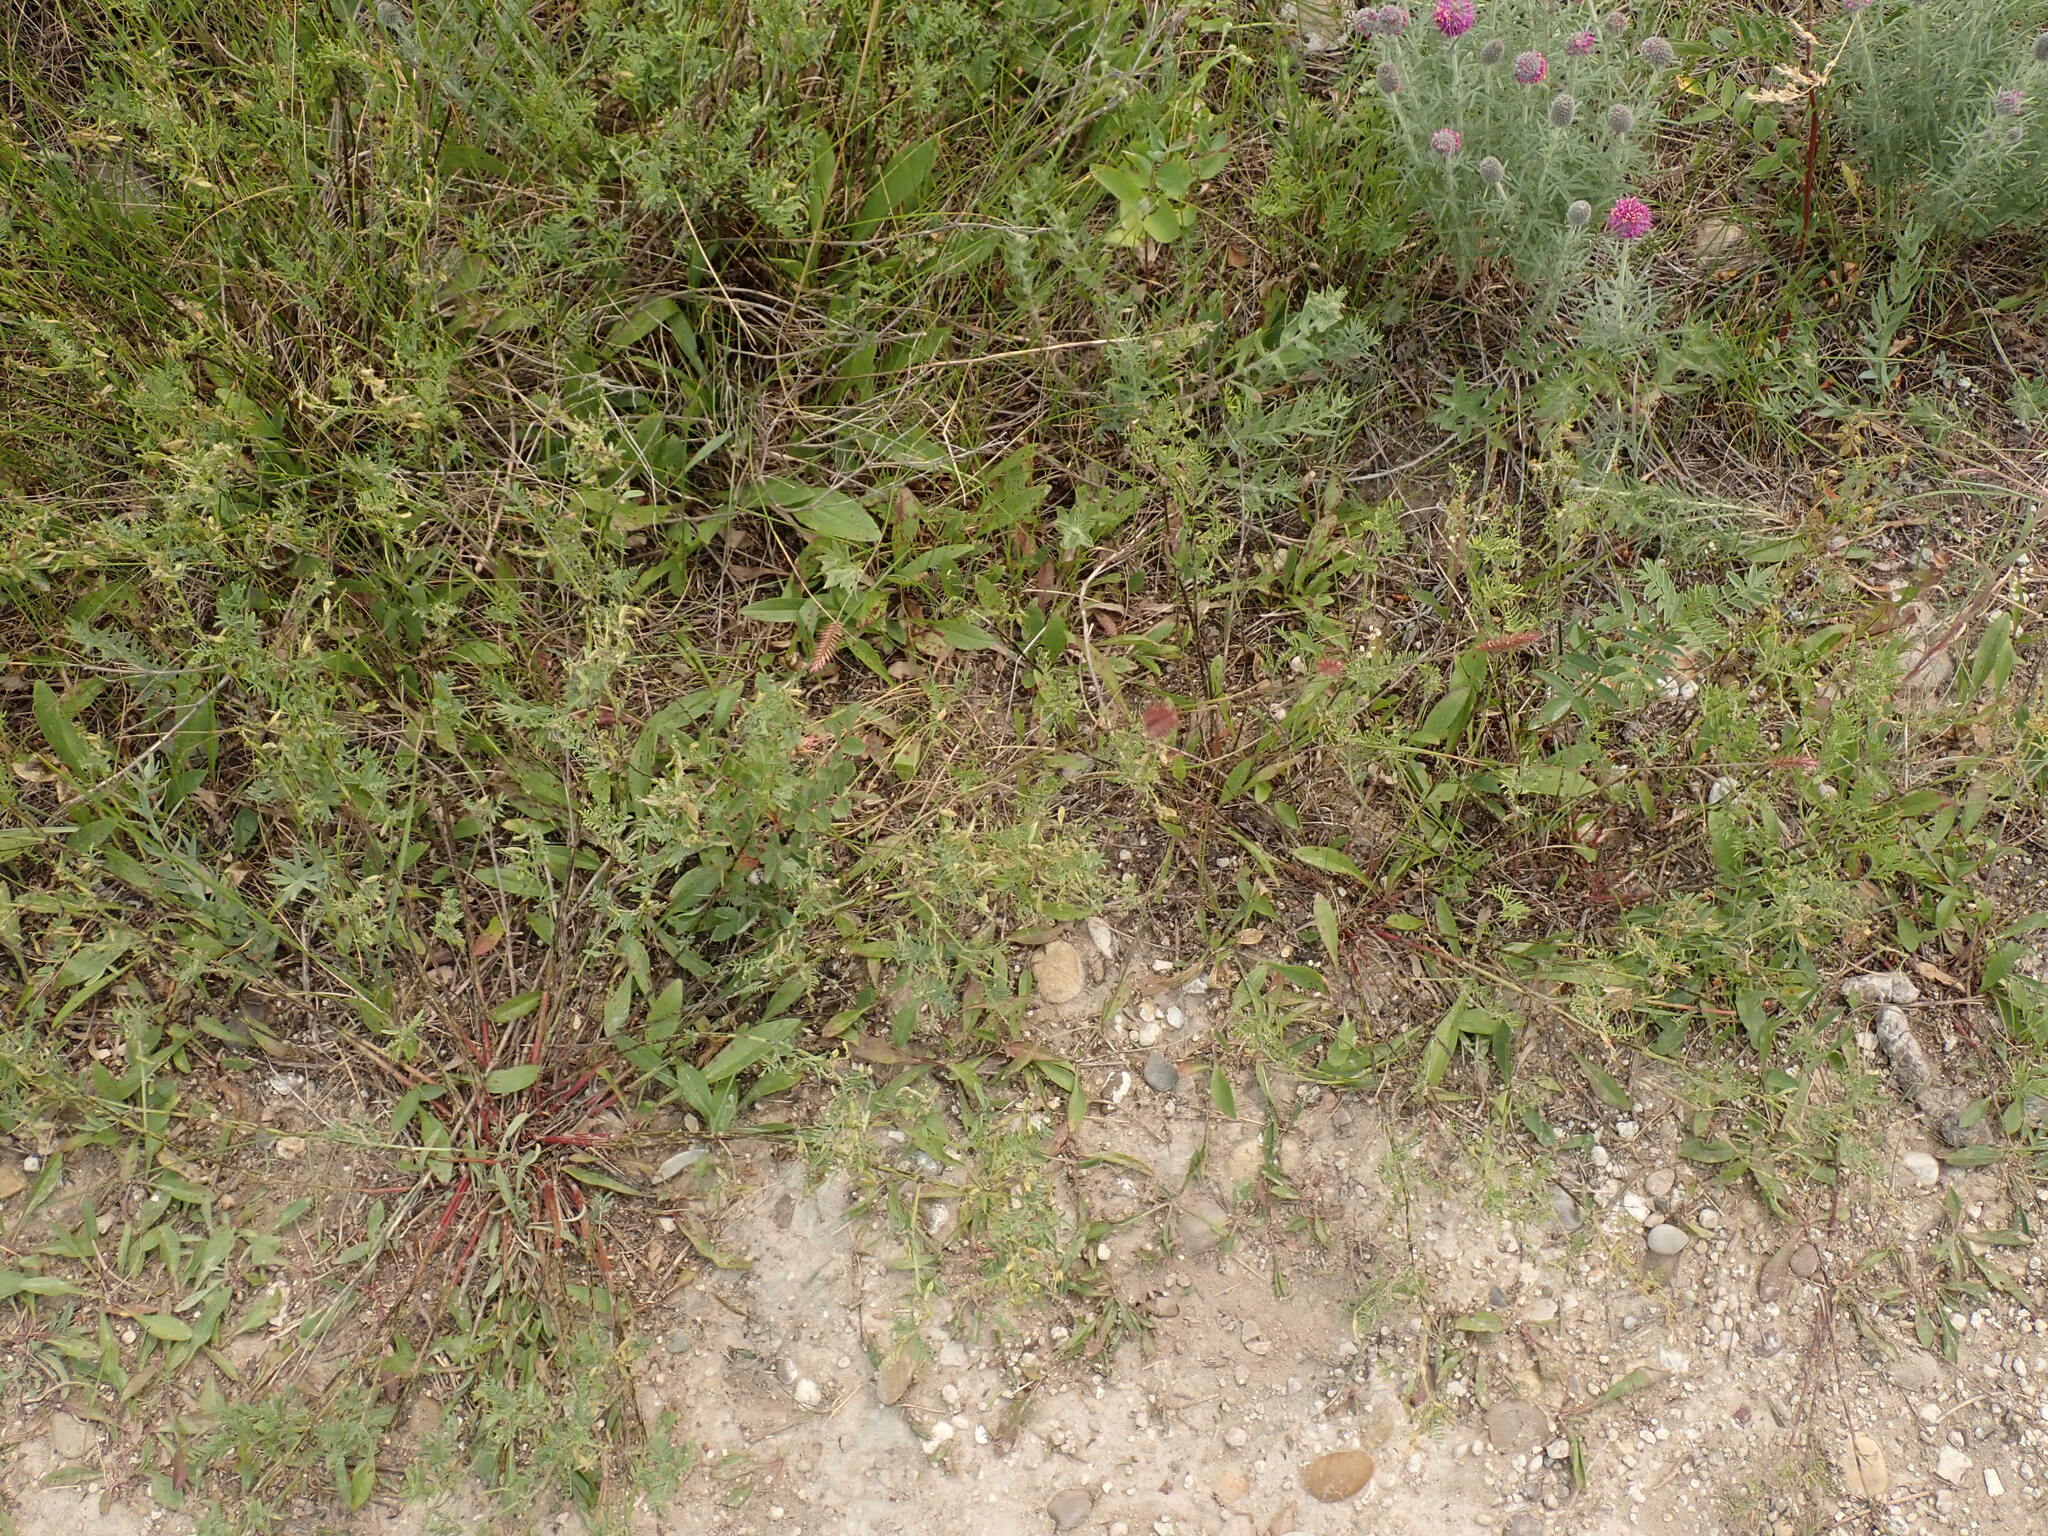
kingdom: Plantae
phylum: Tracheophyta
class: Liliopsida
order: Poales
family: Poaceae
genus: Agropyron
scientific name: Agropyron cristatum
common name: Crested wheatgrass
